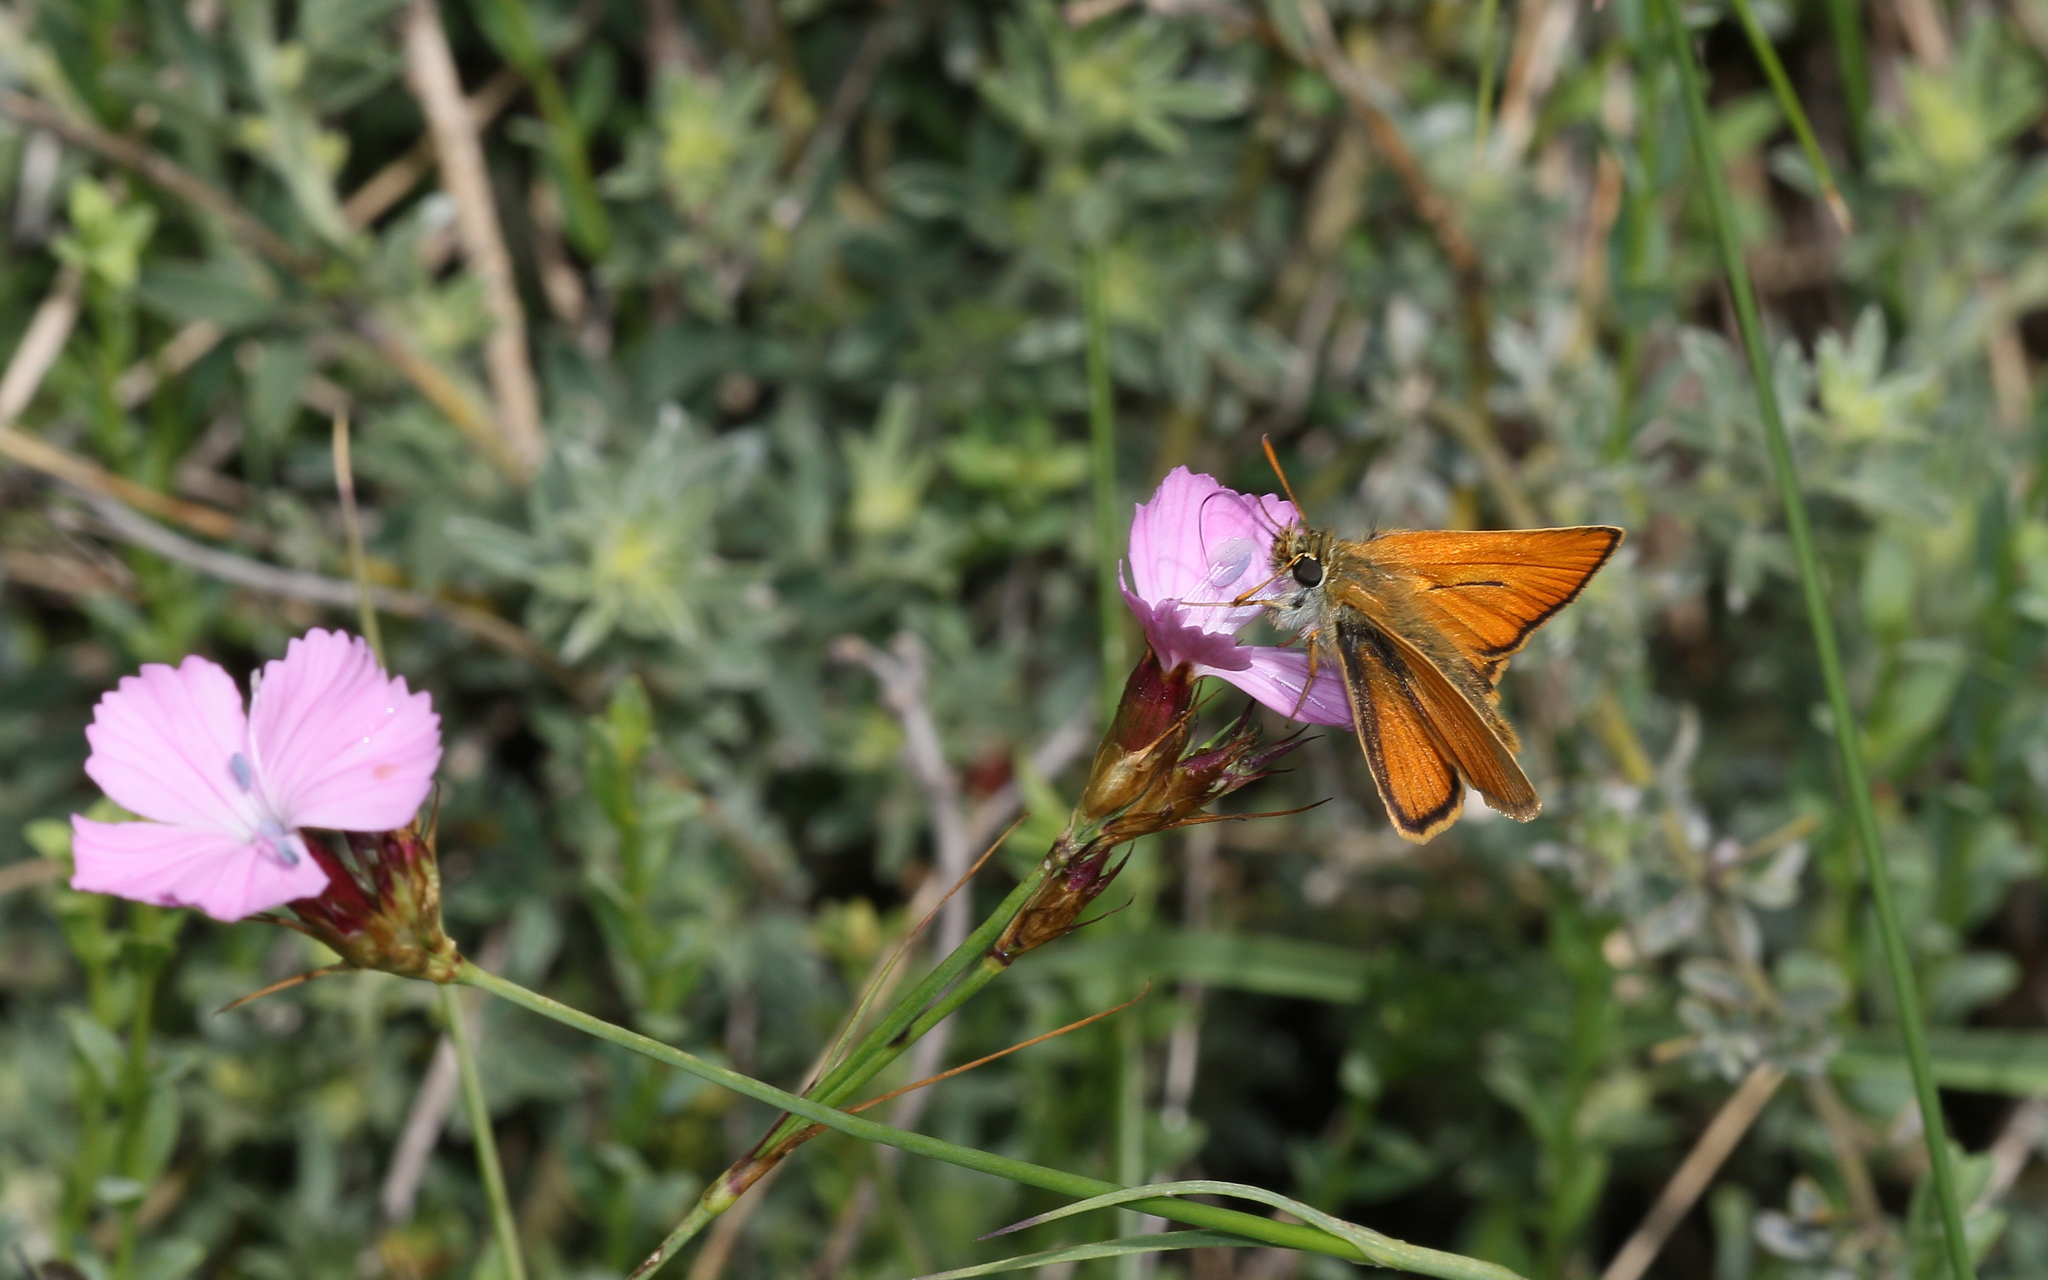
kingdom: Animalia
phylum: Arthropoda
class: Insecta
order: Lepidoptera
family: Hesperiidae
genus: Thymelicus
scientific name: Thymelicus sylvestris
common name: Small skipper
